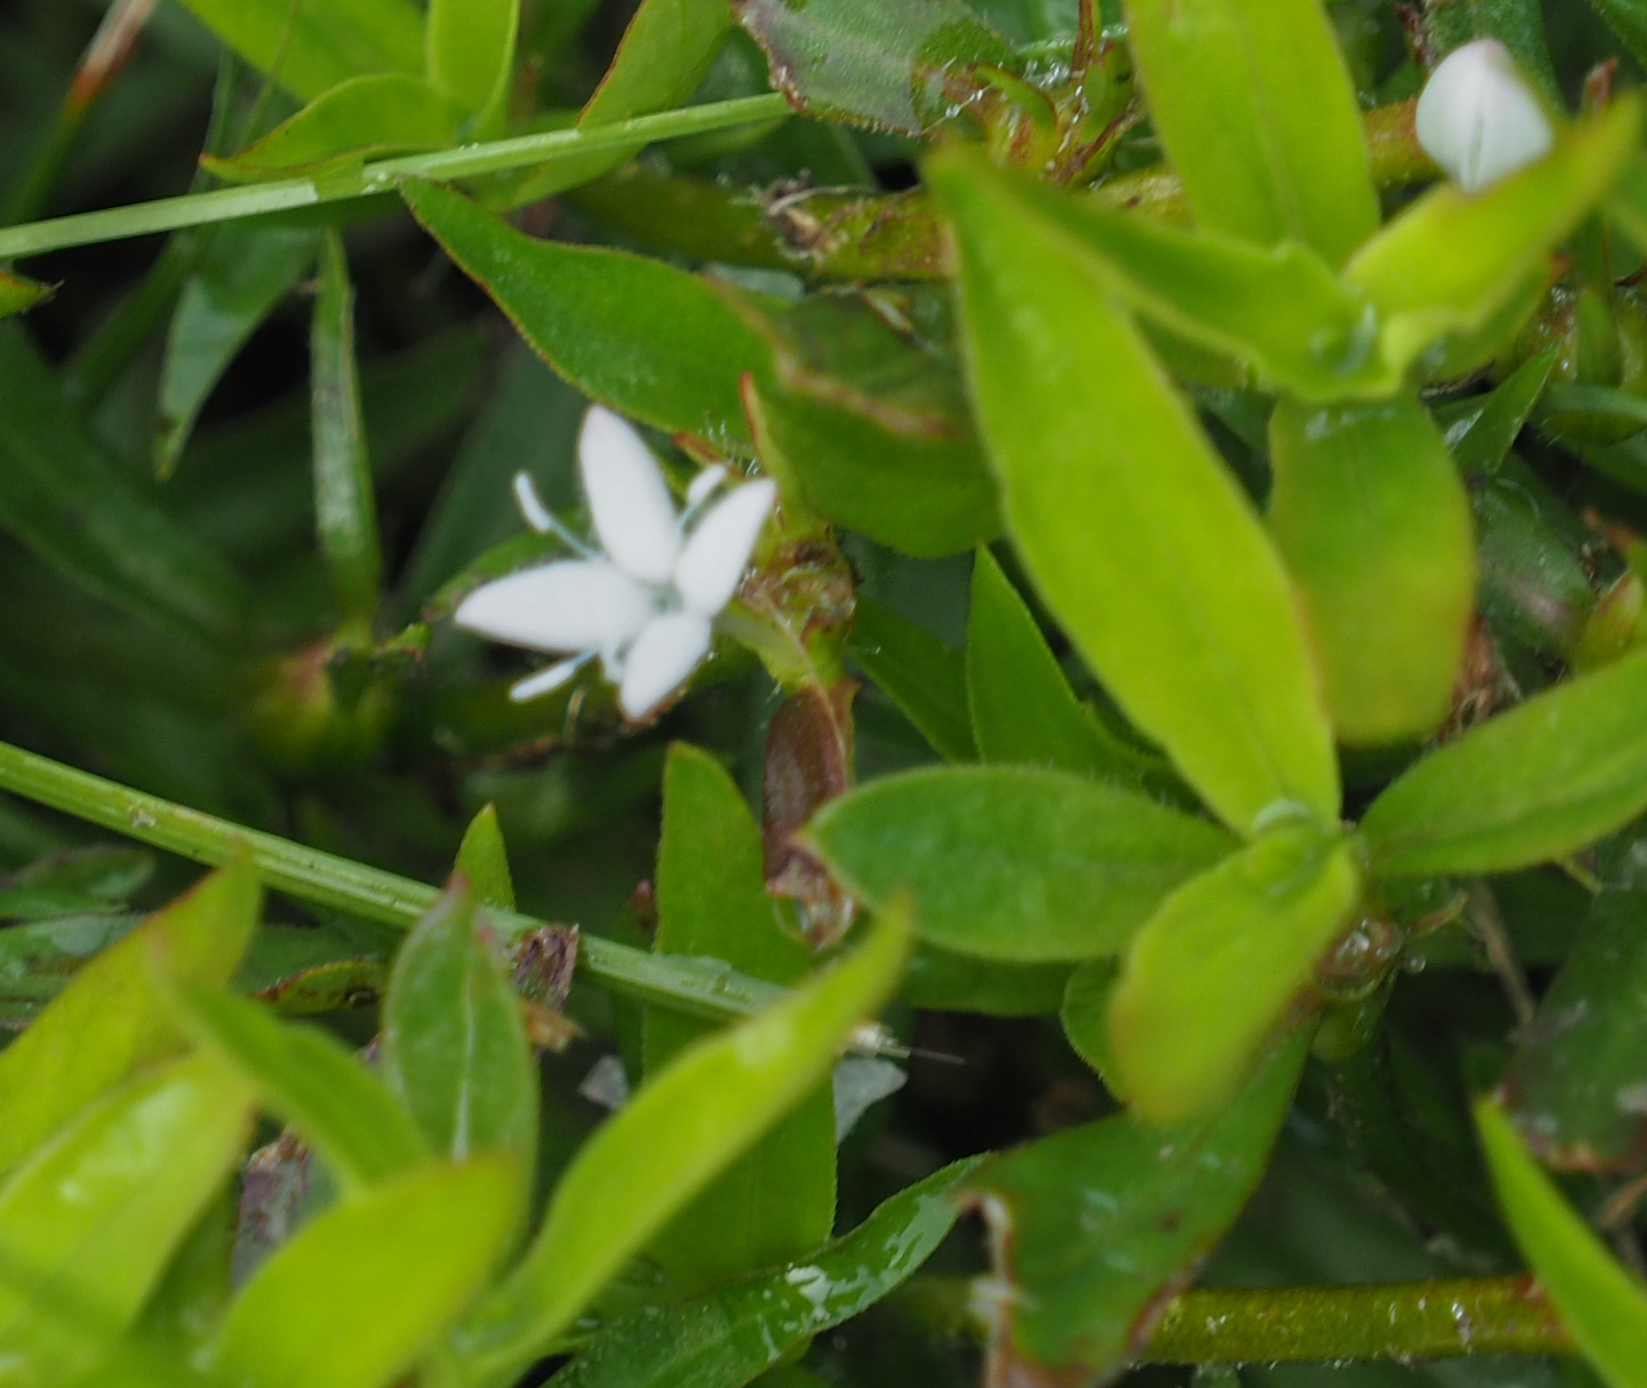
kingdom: Plantae
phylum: Tracheophyta
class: Magnoliopsida
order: Gentianales
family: Rubiaceae
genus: Diodia
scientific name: Diodia virginiana
